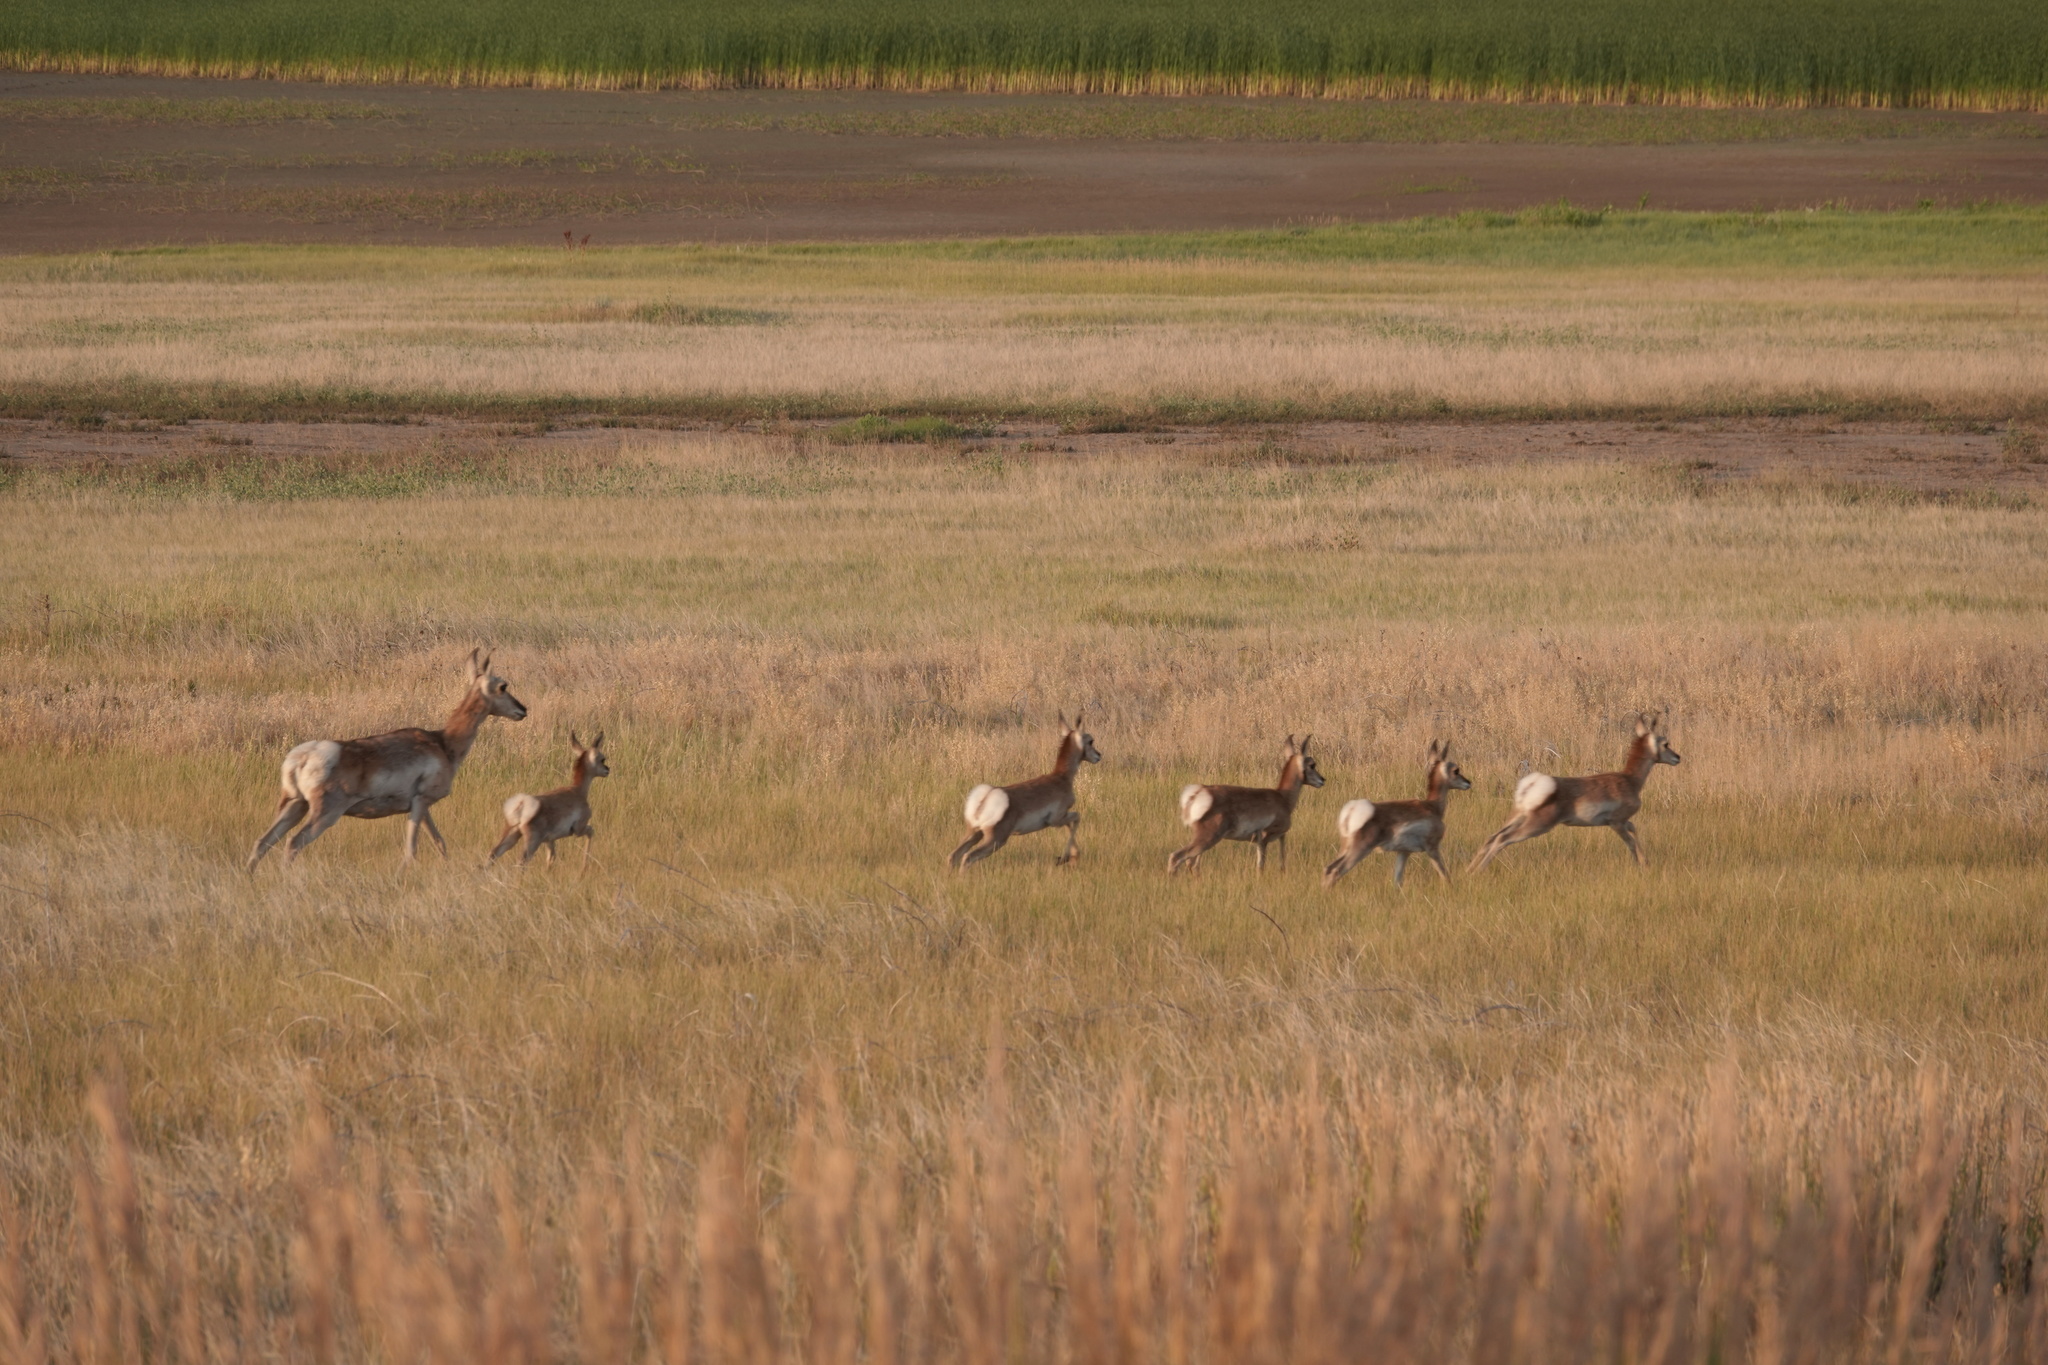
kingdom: Animalia
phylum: Chordata
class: Mammalia
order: Artiodactyla
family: Antilocapridae
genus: Antilocapra
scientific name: Antilocapra americana
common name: Pronghorn
